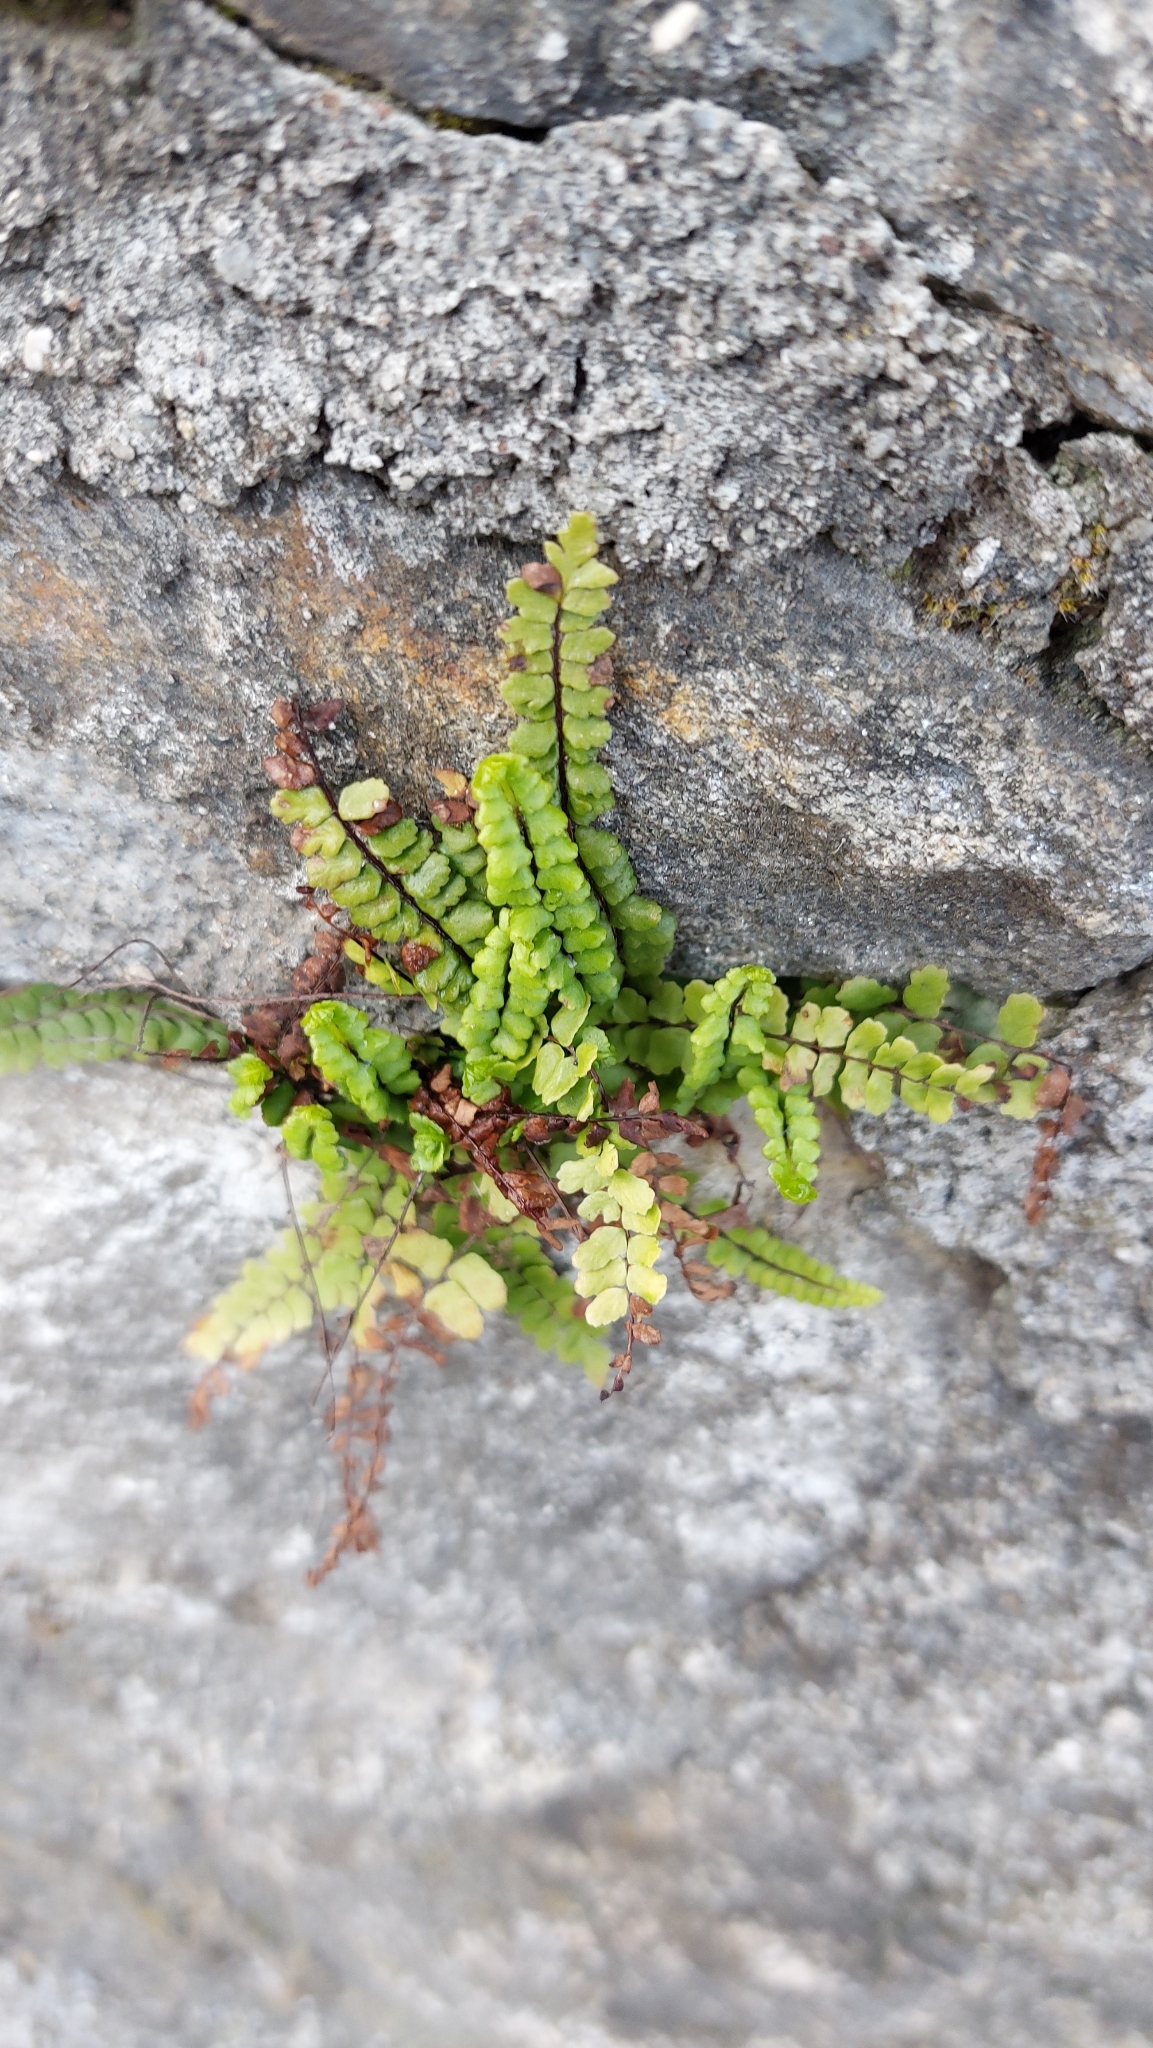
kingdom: Plantae
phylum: Tracheophyta
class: Polypodiopsida
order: Polypodiales
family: Aspleniaceae
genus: Asplenium
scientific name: Asplenium trichomanes
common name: Maidenhair spleenwort
